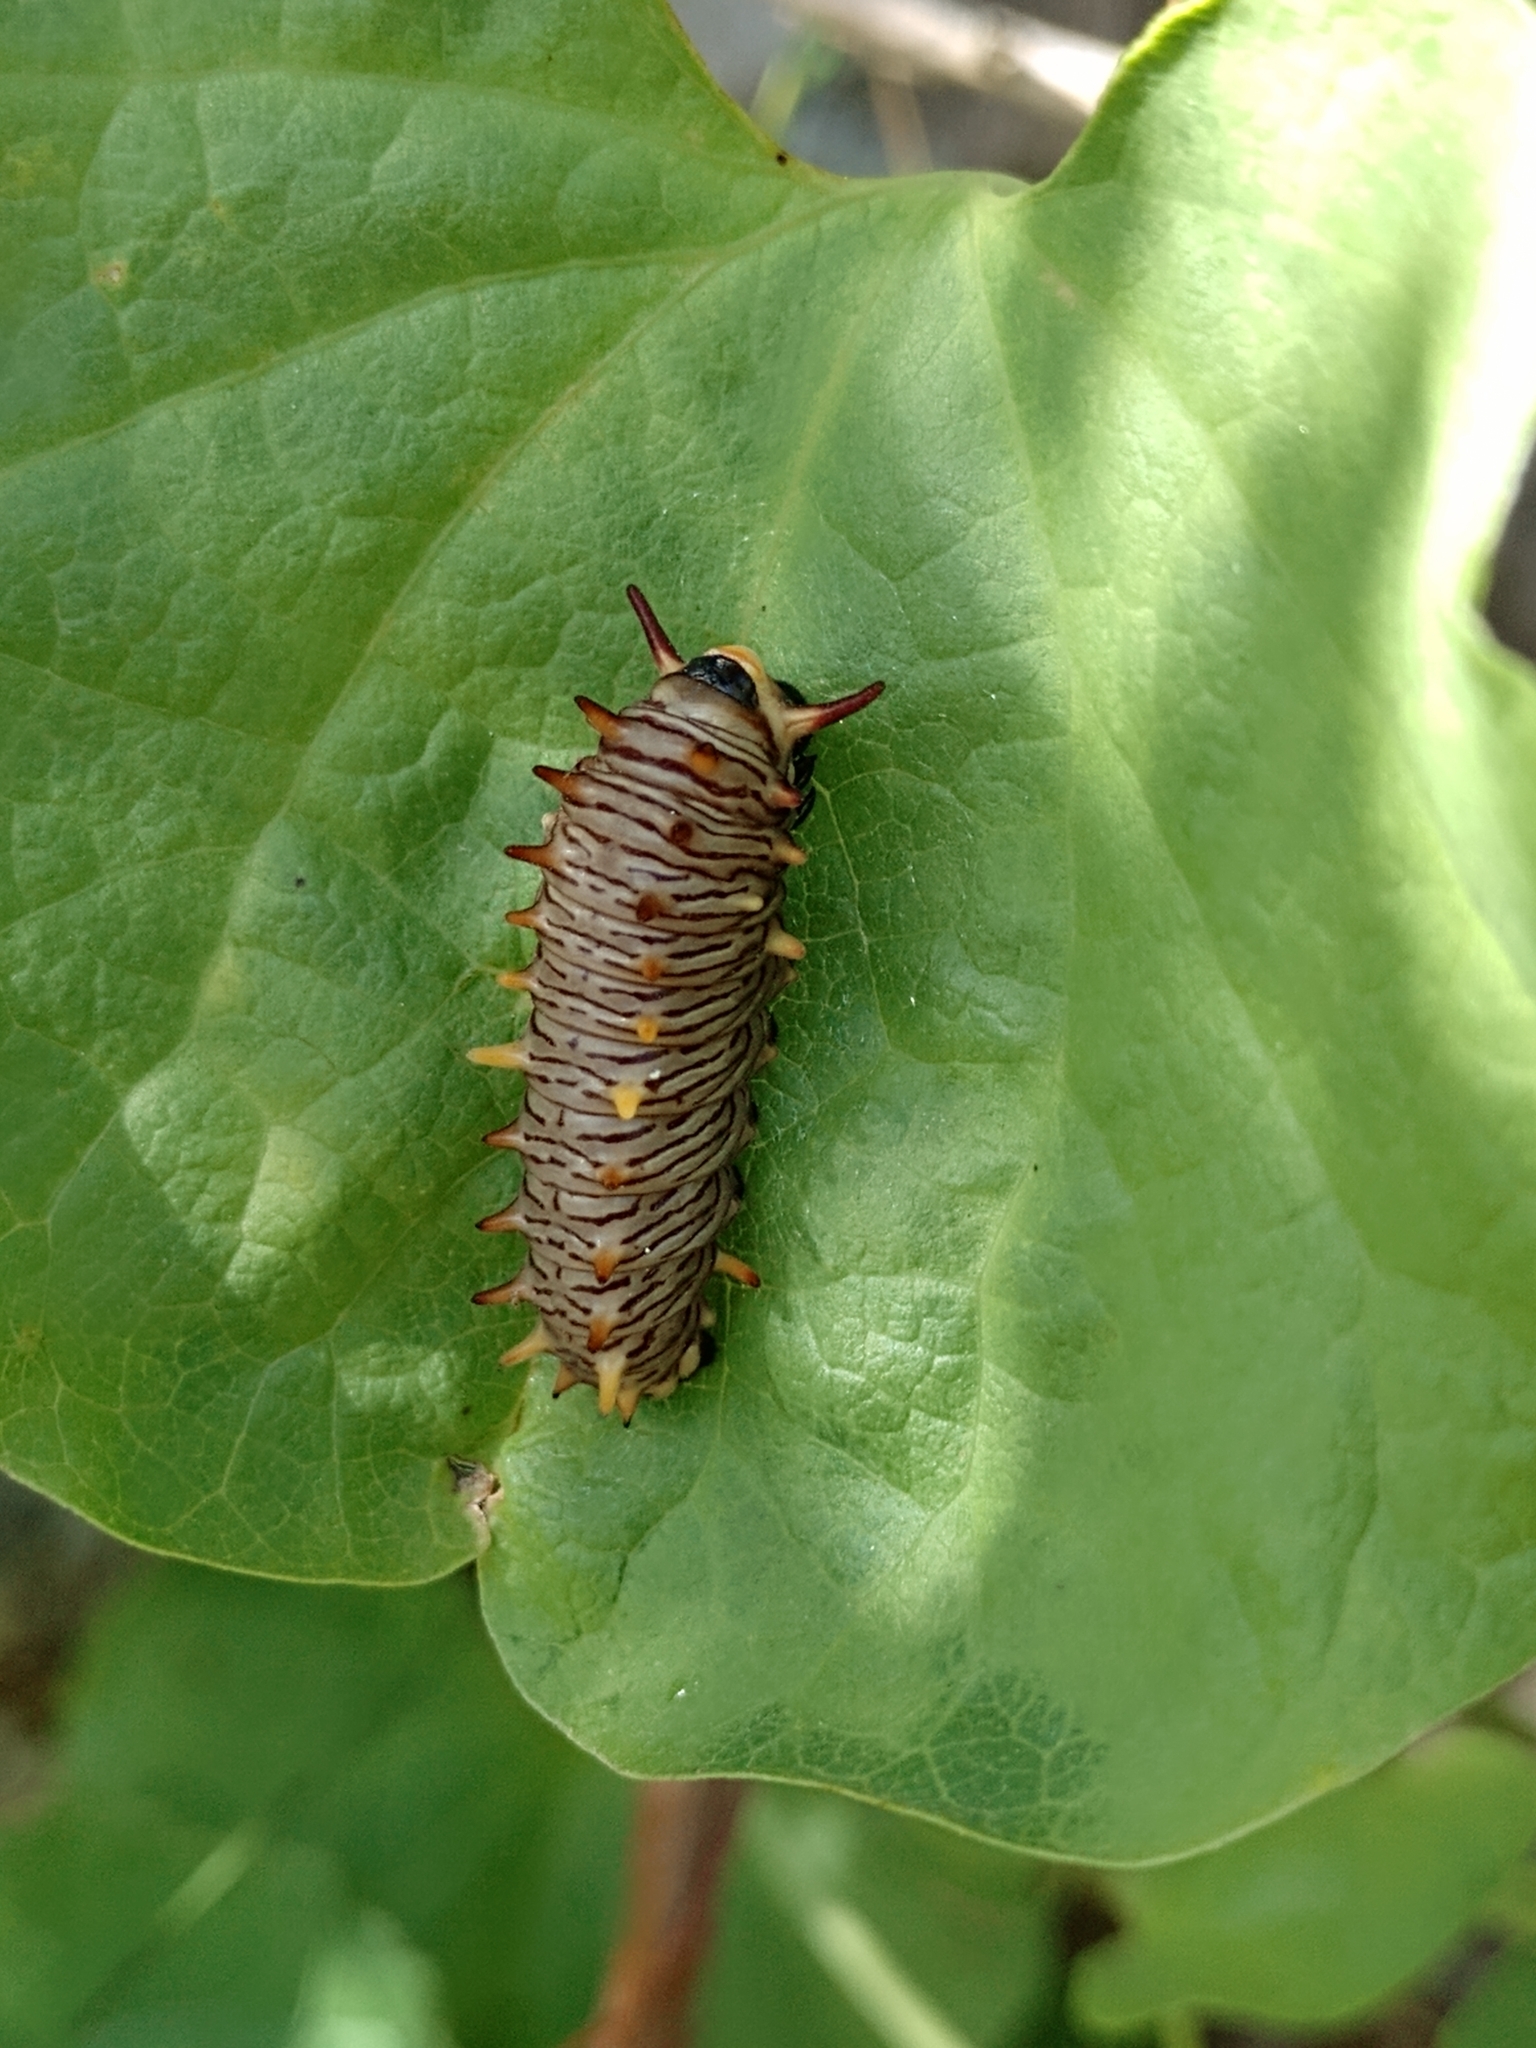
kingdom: Animalia
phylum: Arthropoda
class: Insecta
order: Lepidoptera
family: Papilionidae
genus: Battus
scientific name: Battus polydamas
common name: Polydamas swallowtail
